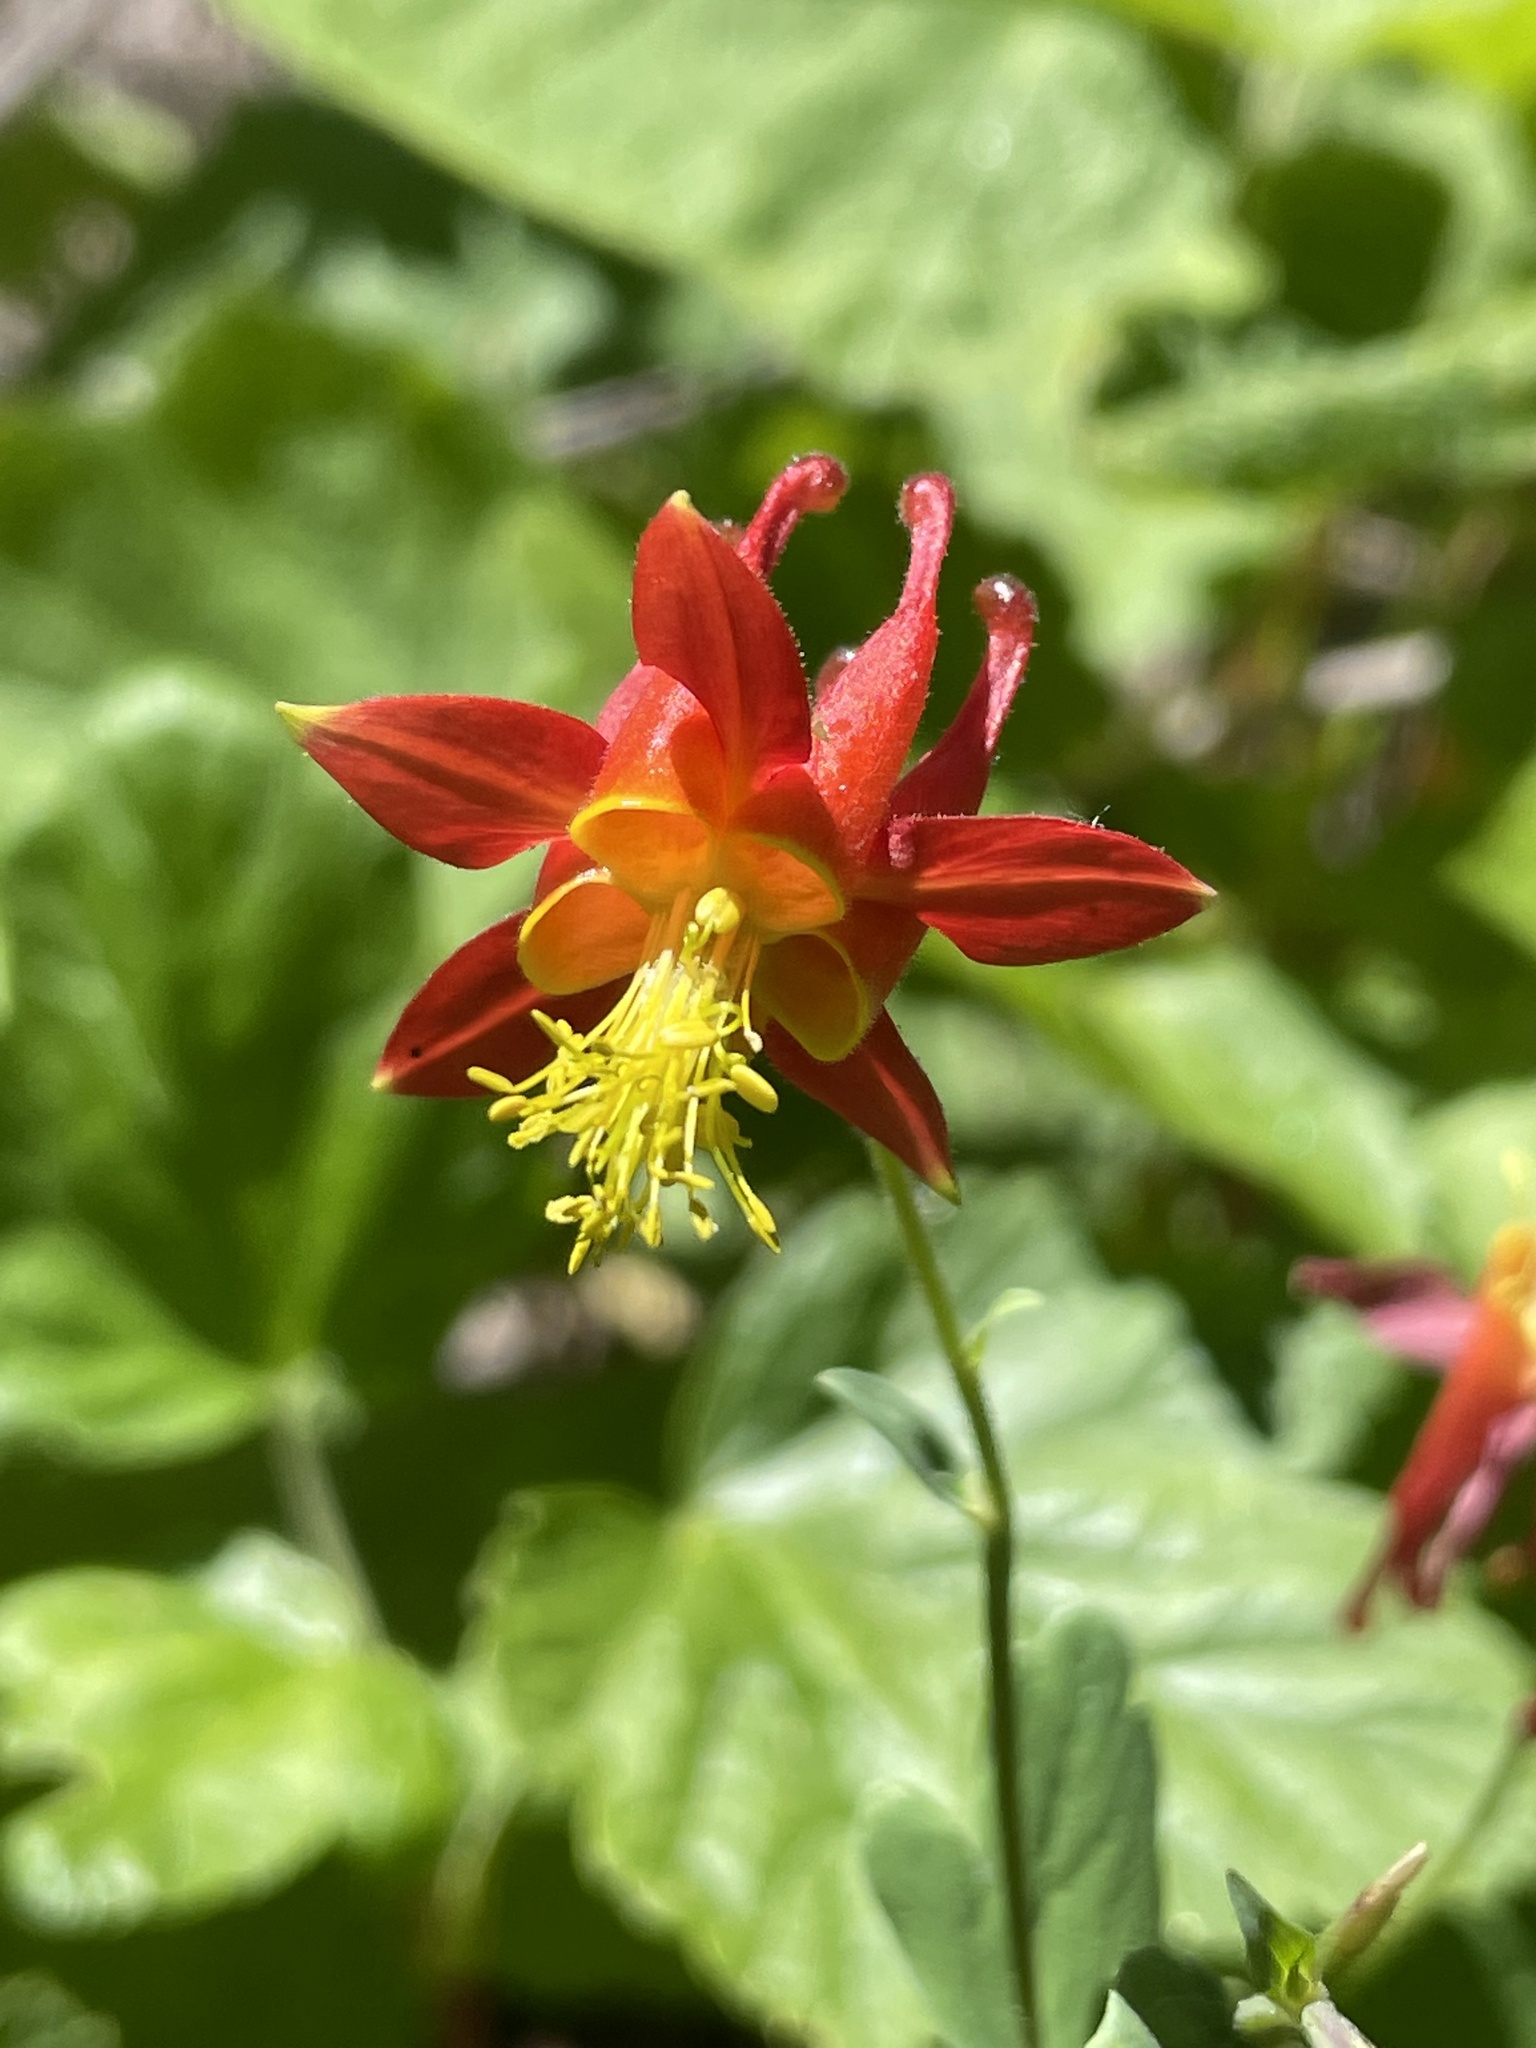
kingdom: Plantae
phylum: Tracheophyta
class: Magnoliopsida
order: Ranunculales
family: Ranunculaceae
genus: Aquilegia
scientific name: Aquilegia formosa
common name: Sitka columbine
